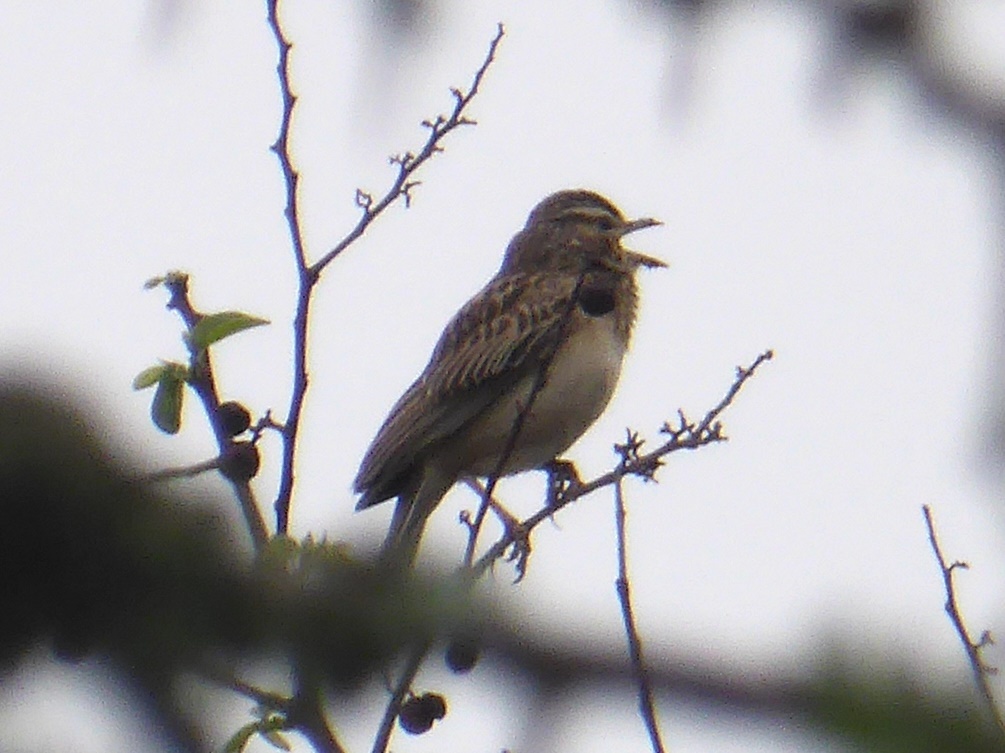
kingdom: Animalia
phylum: Chordata
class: Aves
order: Passeriformes
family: Alaudidae
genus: Calendulauda
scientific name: Calendulauda sabota
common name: Sabota lark
